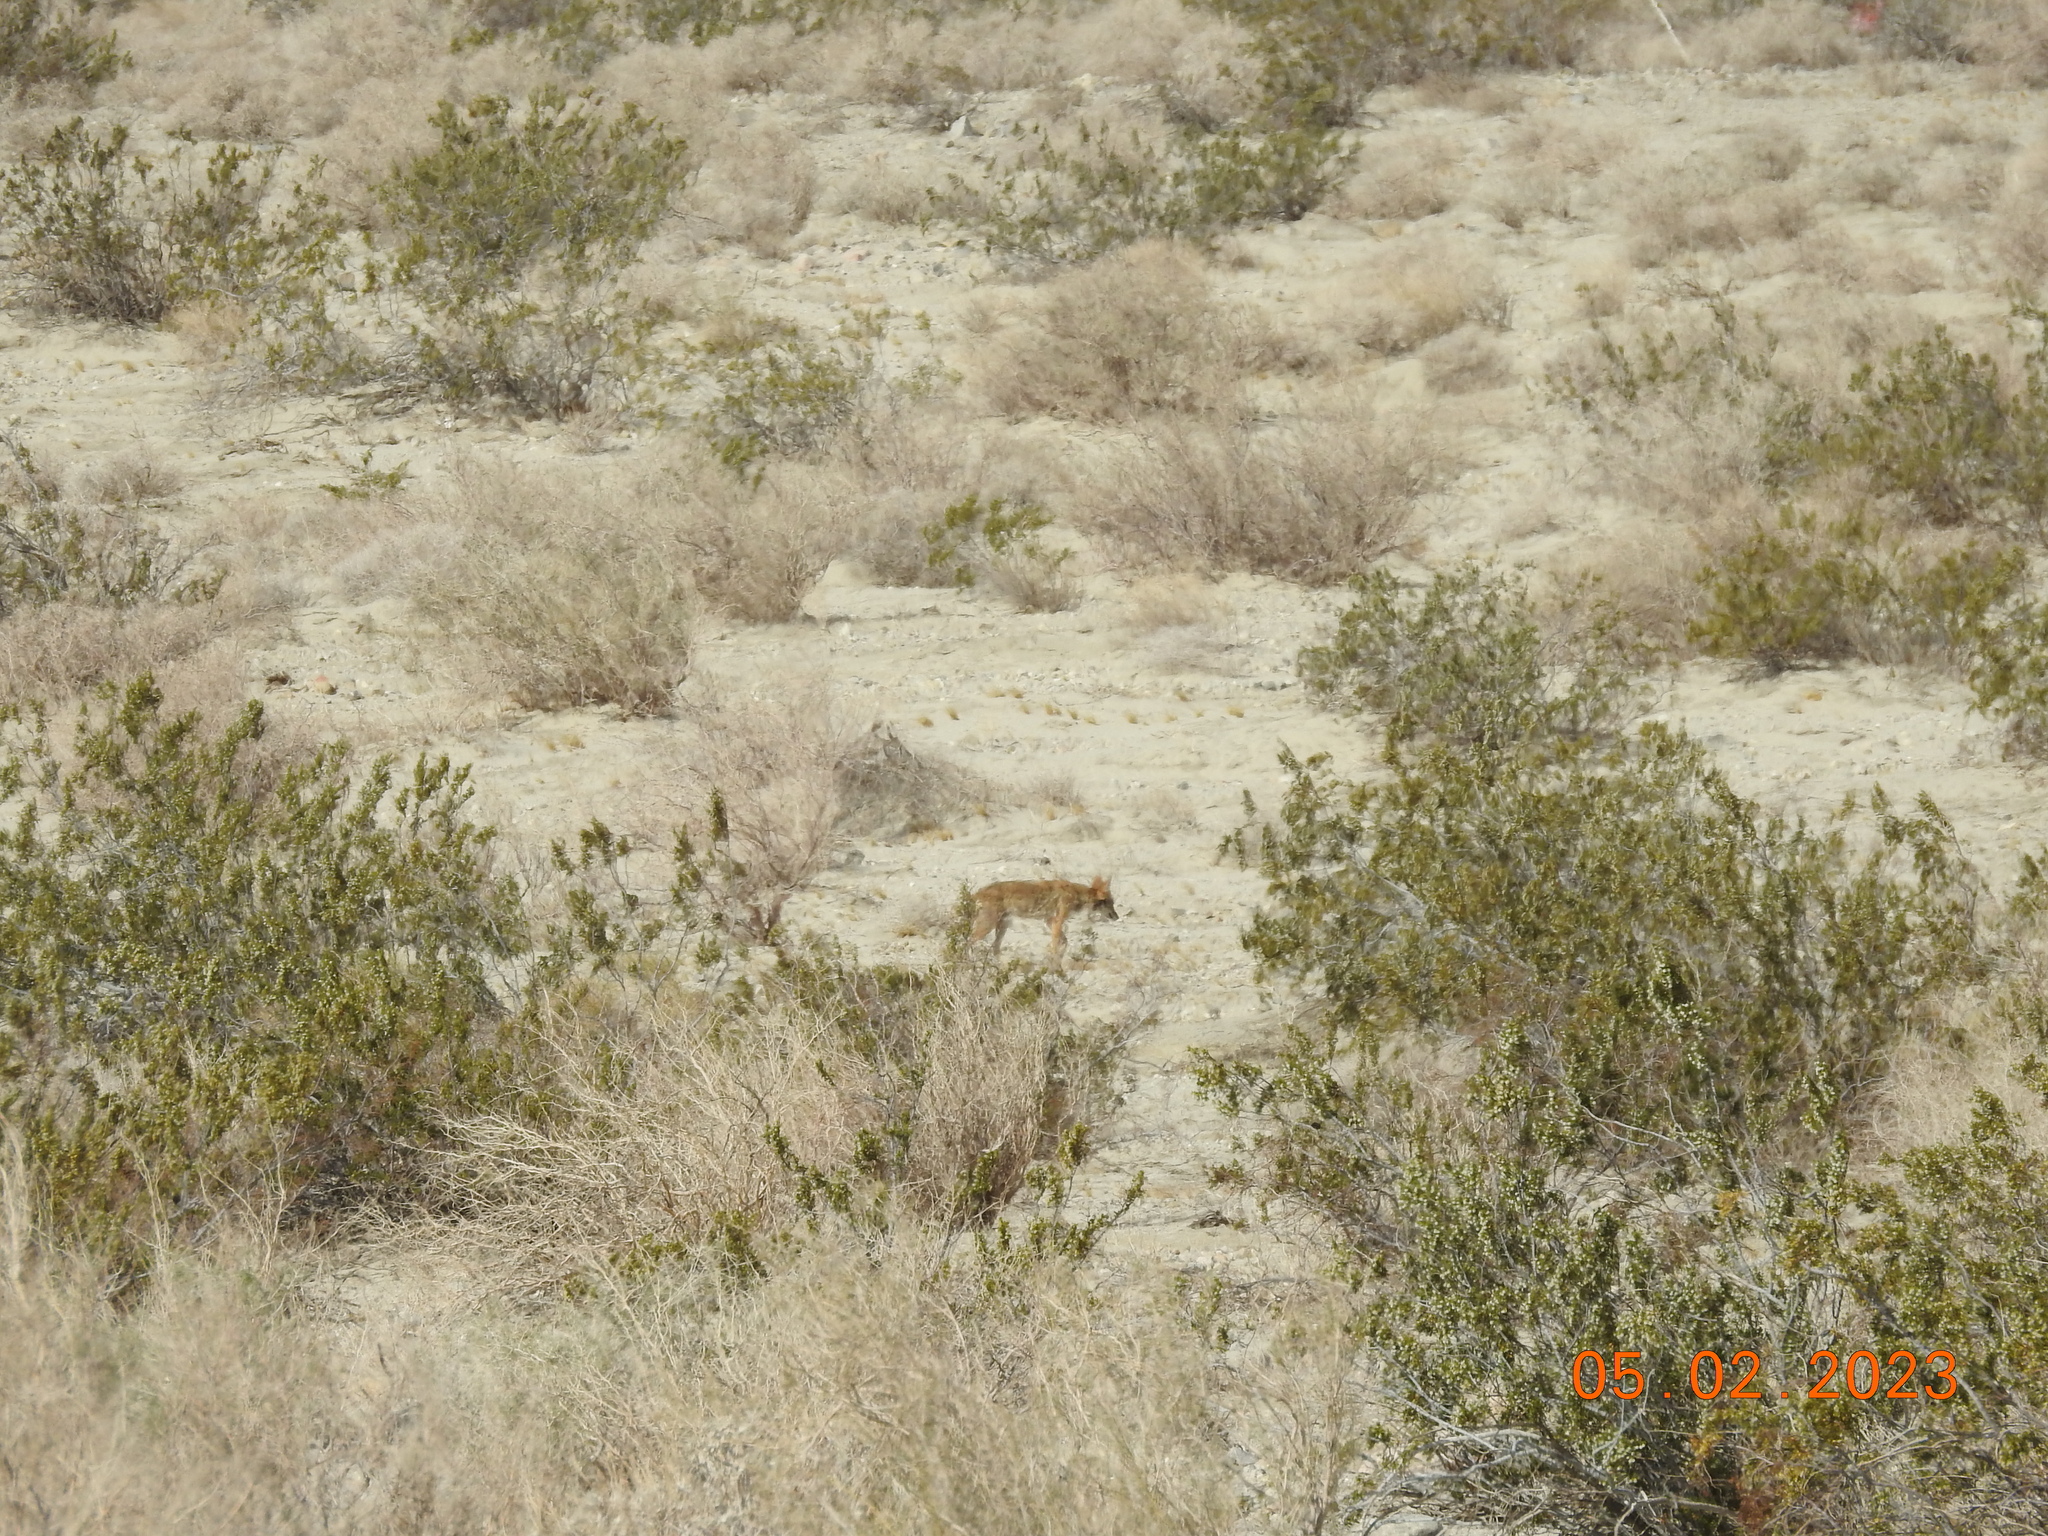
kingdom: Animalia
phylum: Chordata
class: Mammalia
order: Carnivora
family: Canidae
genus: Canis
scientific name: Canis latrans
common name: Coyote
